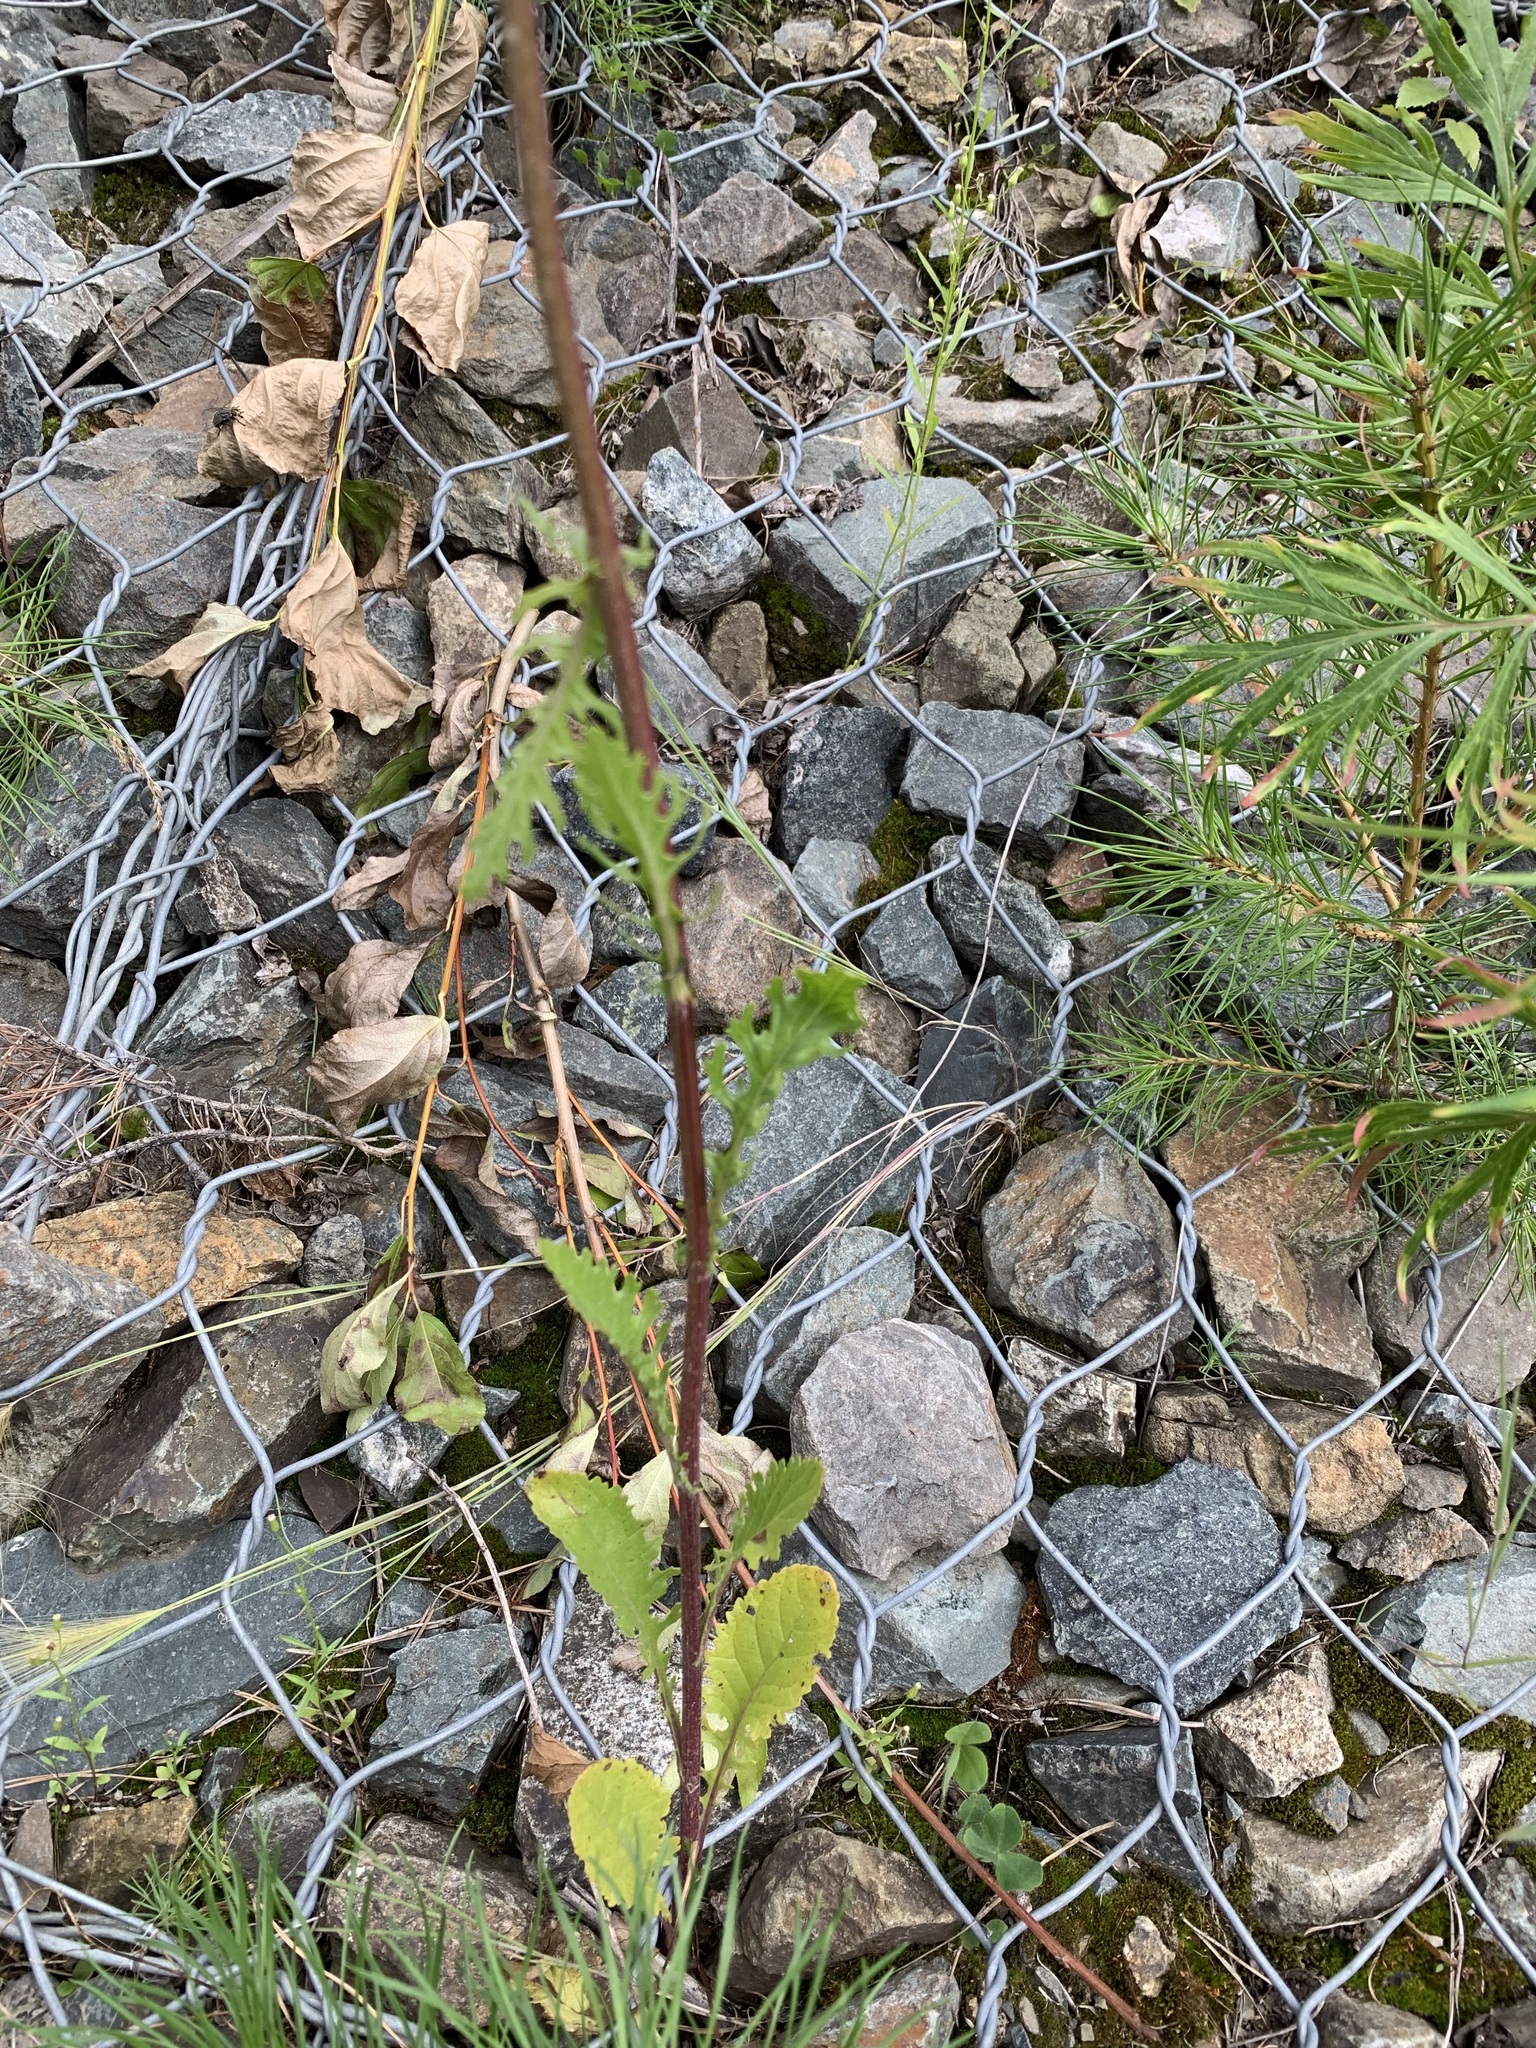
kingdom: Plantae
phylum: Tracheophyta
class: Magnoliopsida
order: Asterales
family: Asteraceae
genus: Jacobaea
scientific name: Jacobaea vulgaris
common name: Stinking willie
